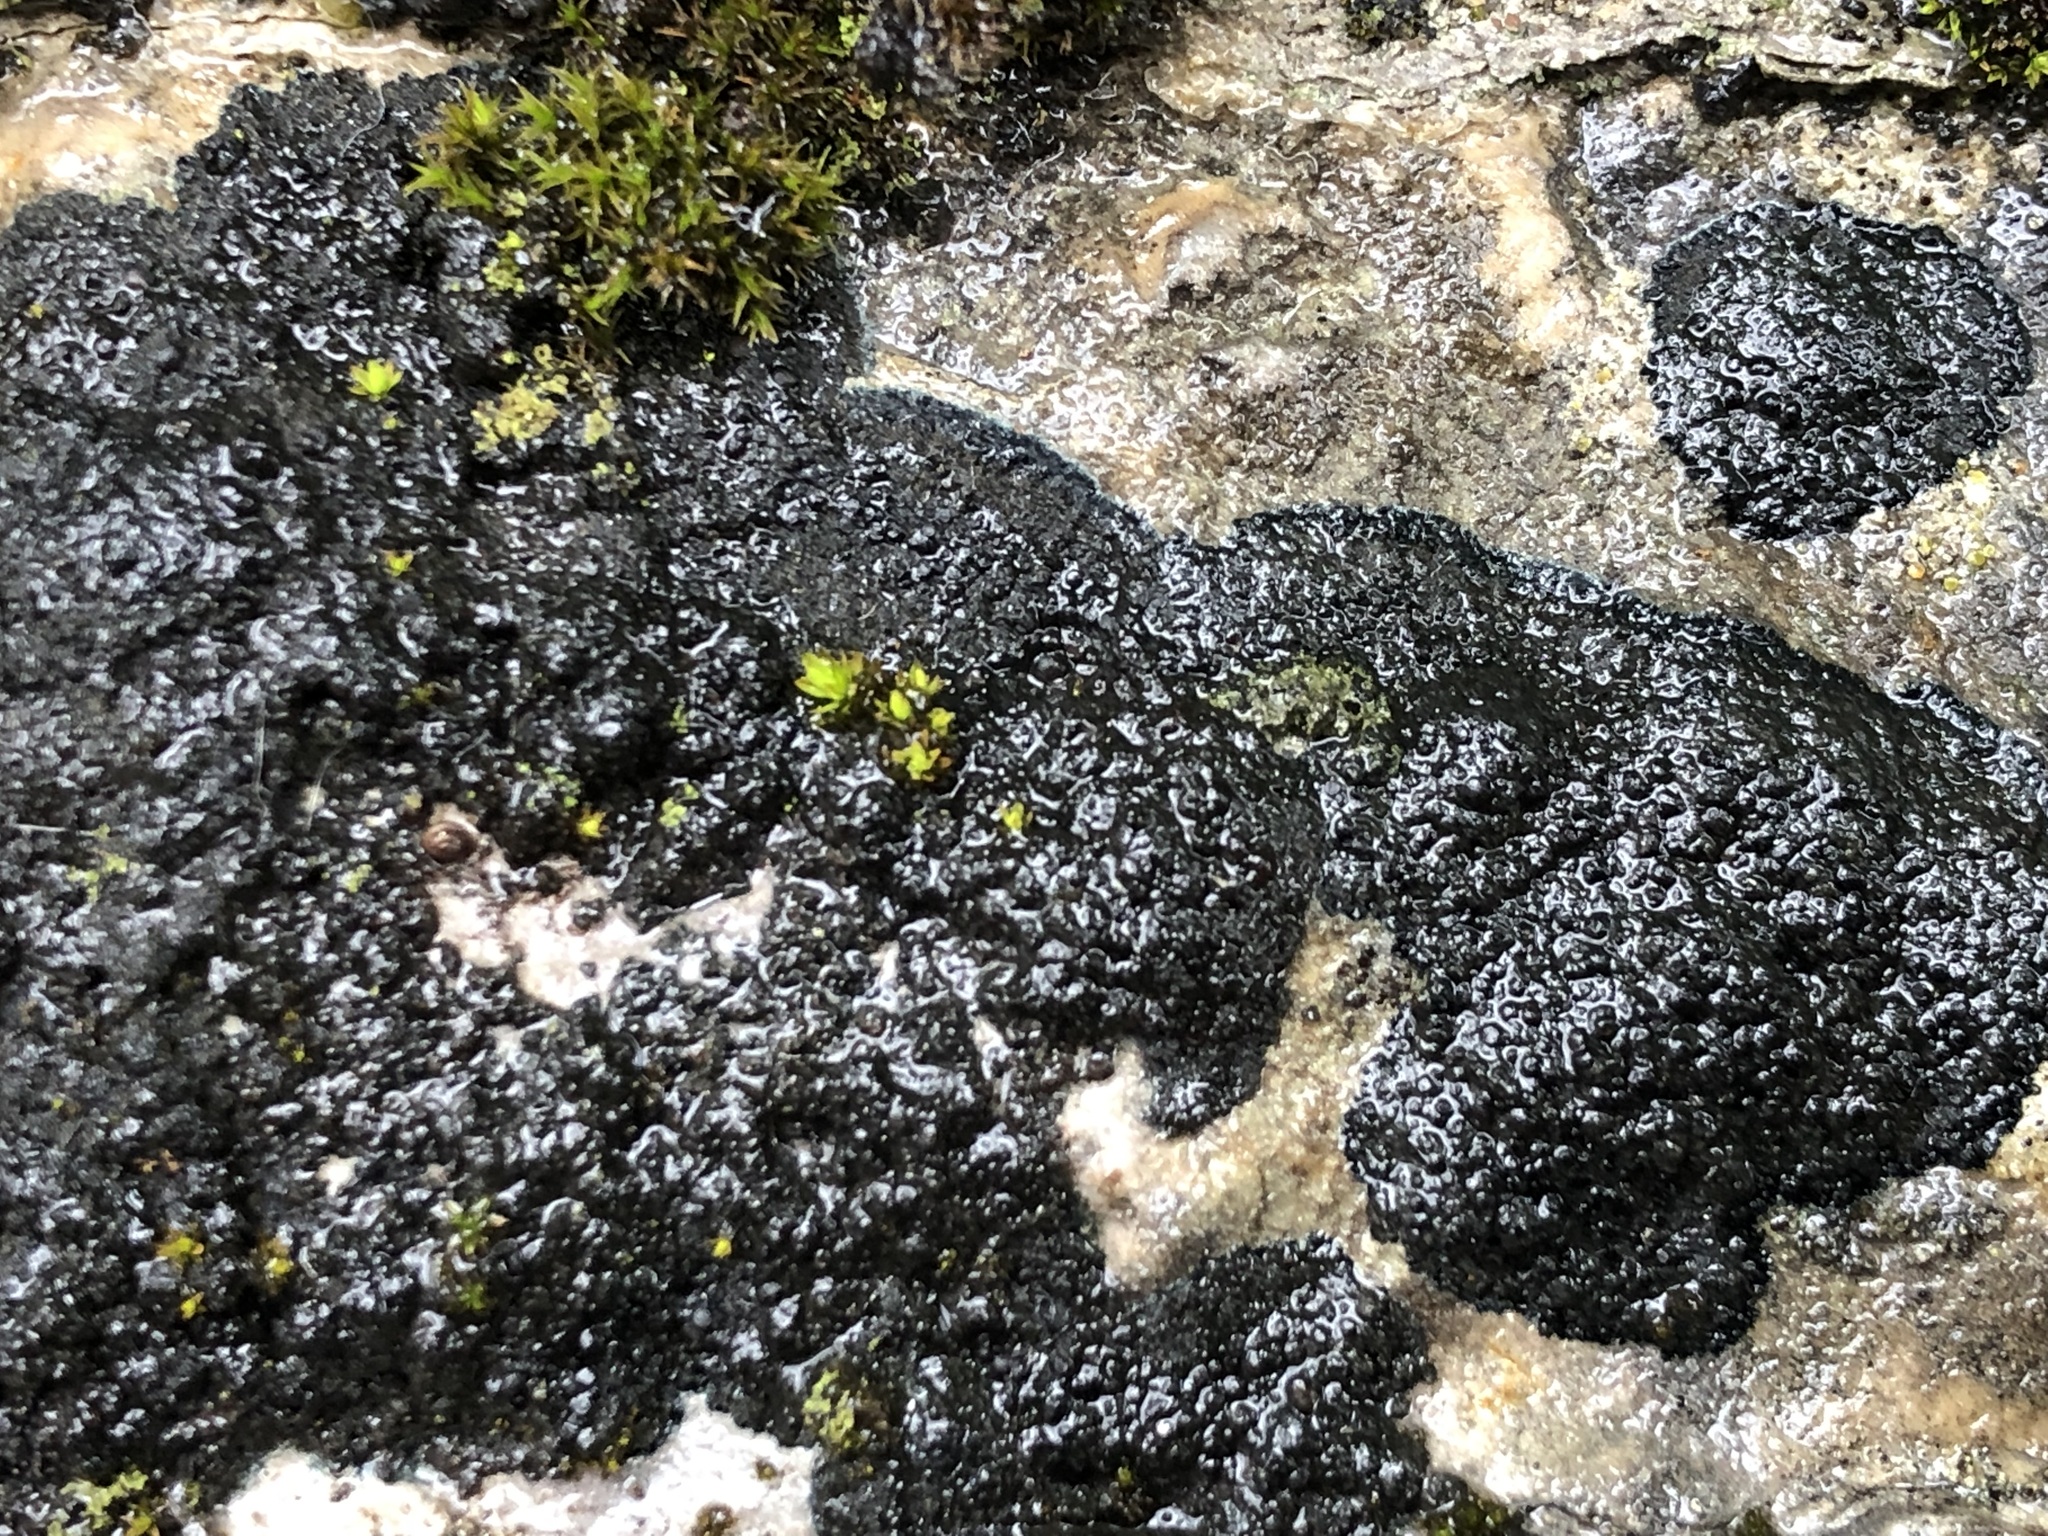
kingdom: Fungi
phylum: Ascomycota
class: Lecanoromycetes
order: Peltigerales
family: Placynthiaceae
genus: Placynthium
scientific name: Placynthium nigrum
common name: Blackthread lichen
